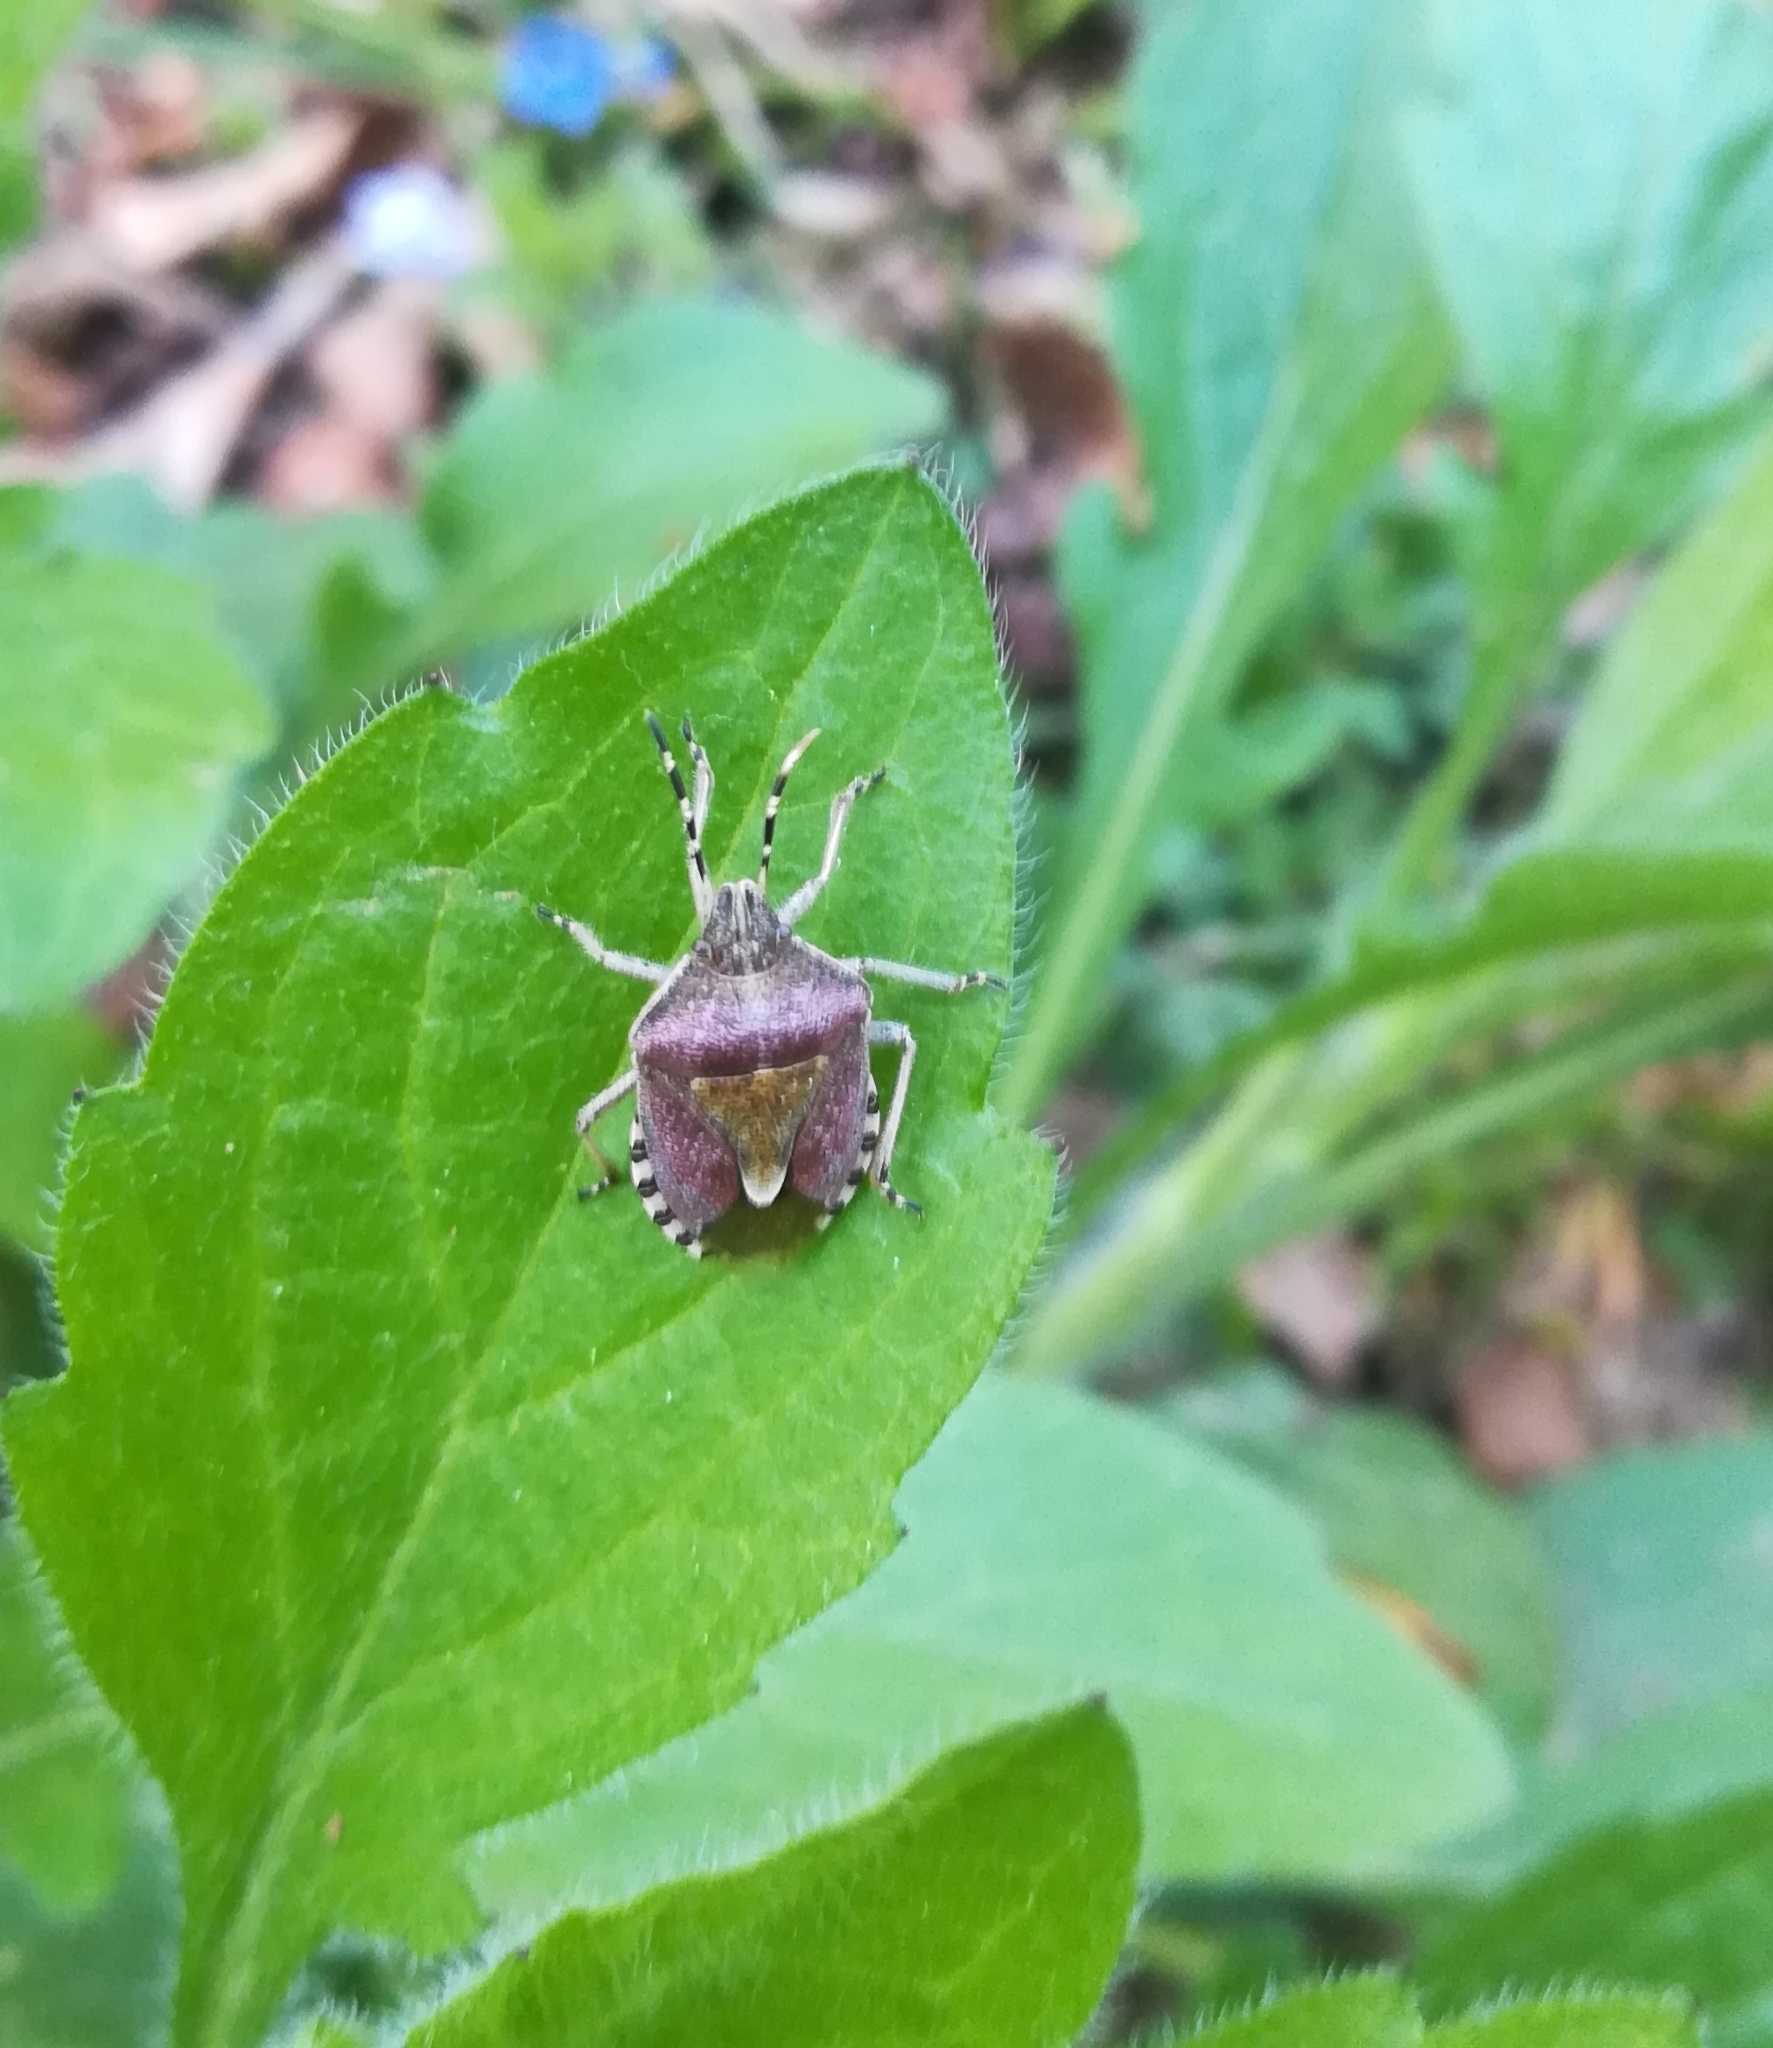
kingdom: Animalia
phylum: Arthropoda
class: Insecta
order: Hemiptera
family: Pentatomidae
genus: Dolycoris
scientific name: Dolycoris baccarum
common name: Sloe bug
